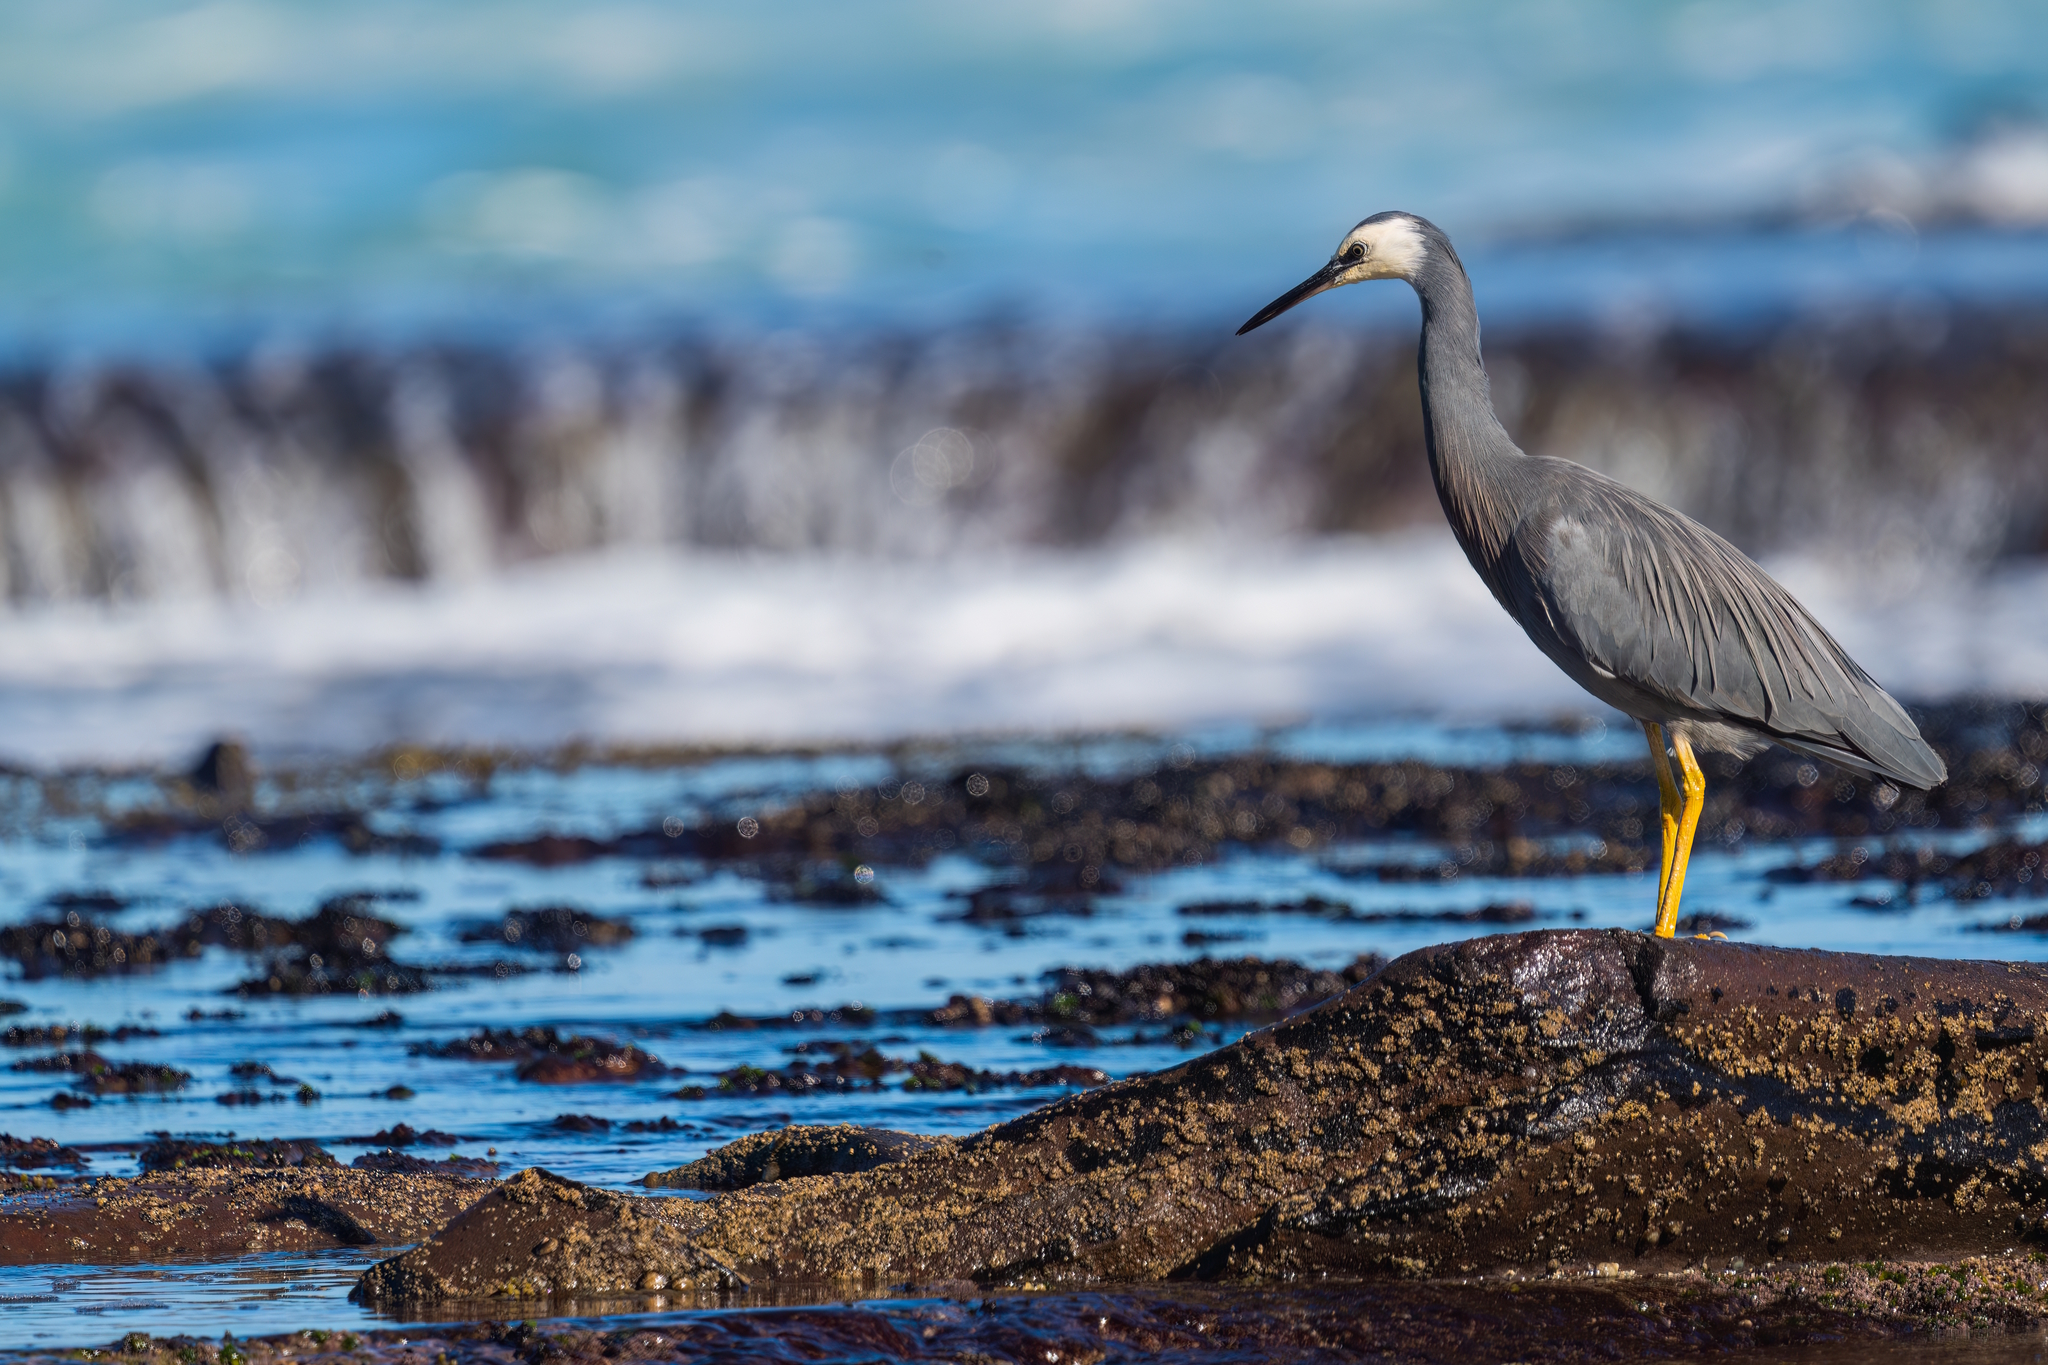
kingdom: Animalia
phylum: Chordata
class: Aves
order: Pelecaniformes
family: Ardeidae
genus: Egretta
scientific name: Egretta novaehollandiae
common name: White-faced heron
